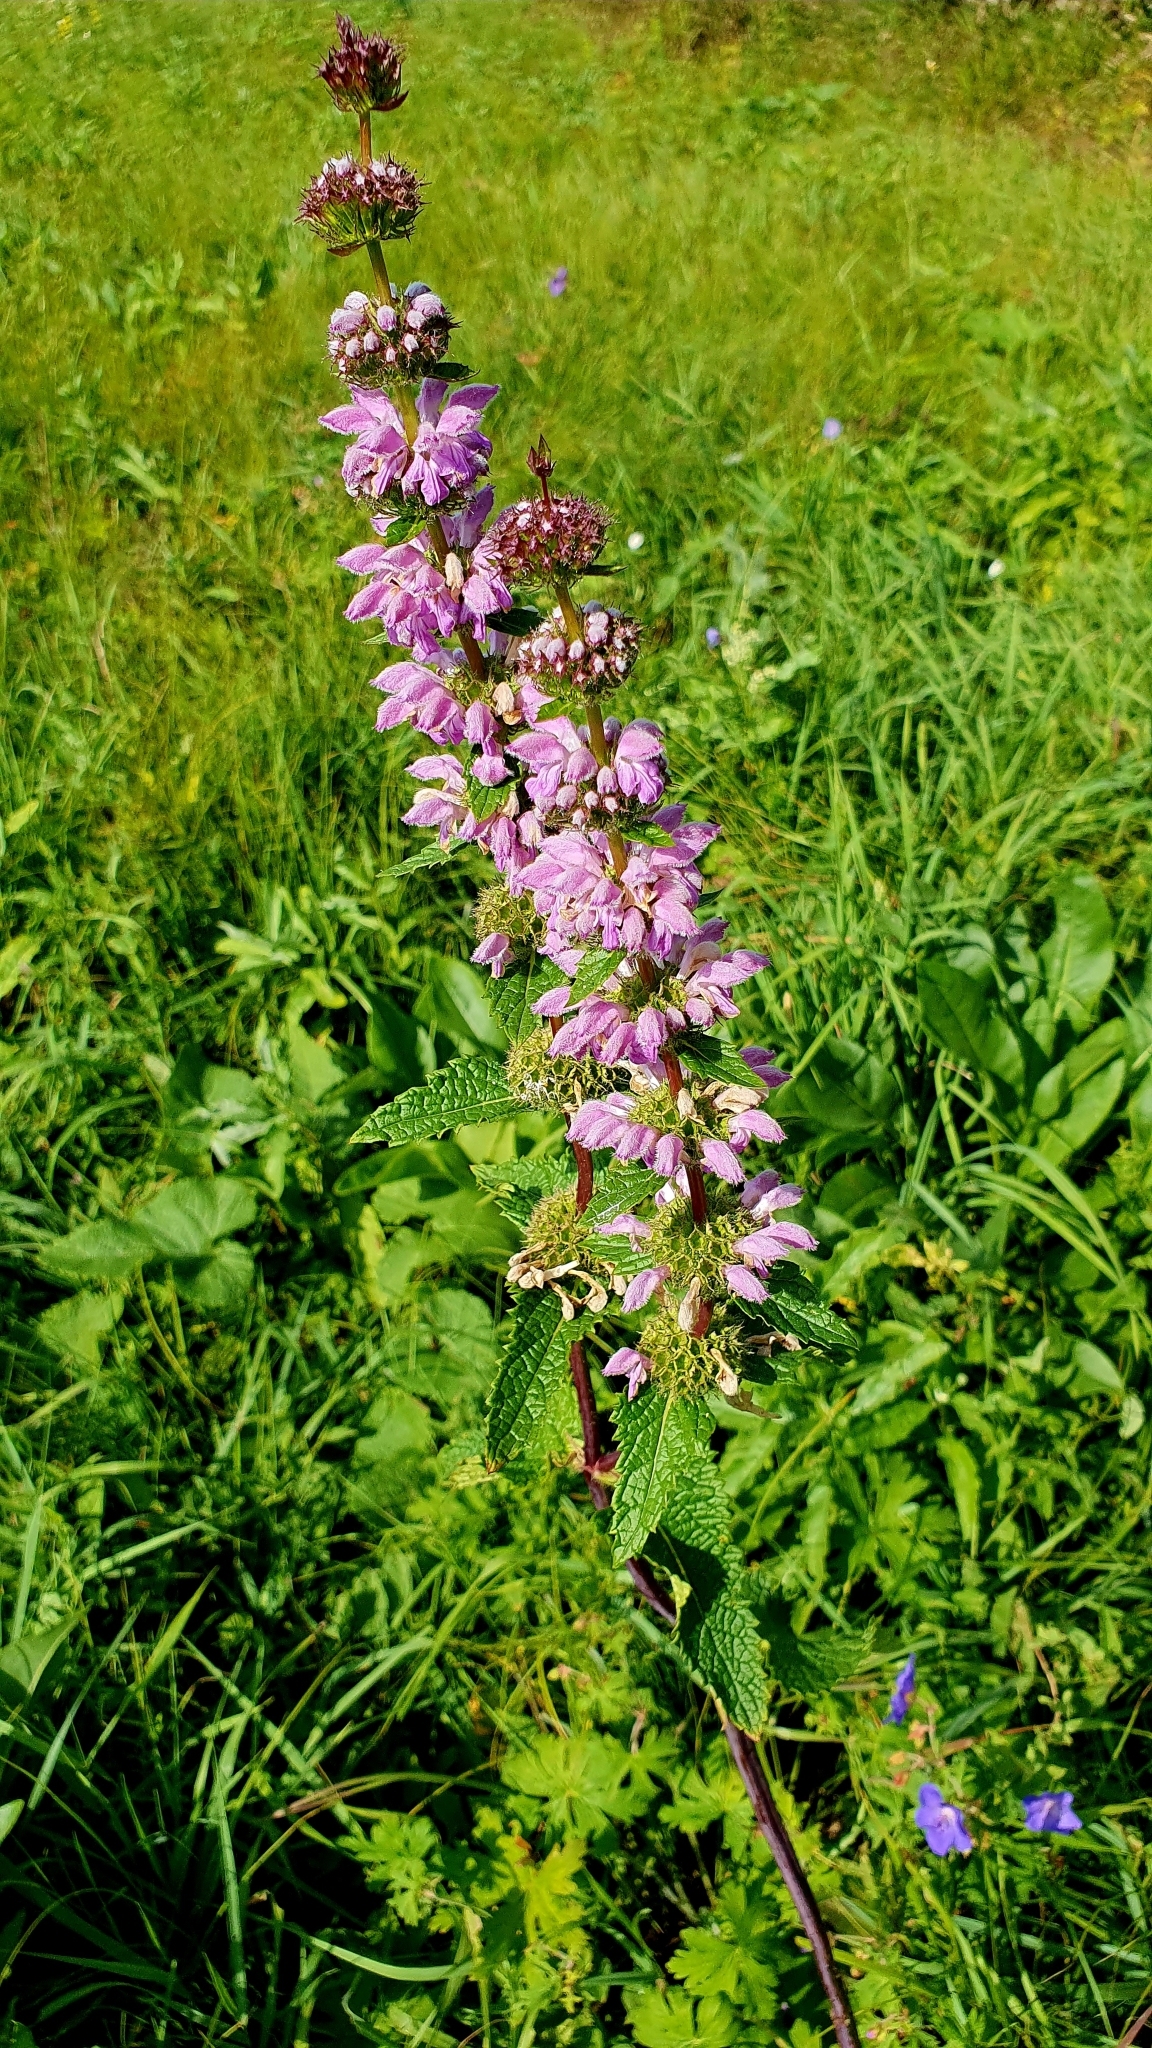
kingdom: Plantae
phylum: Tracheophyta
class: Magnoliopsida
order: Lamiales
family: Lamiaceae
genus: Phlomoides
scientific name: Phlomoides tuberosa
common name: Tuberous jerusalem sage
